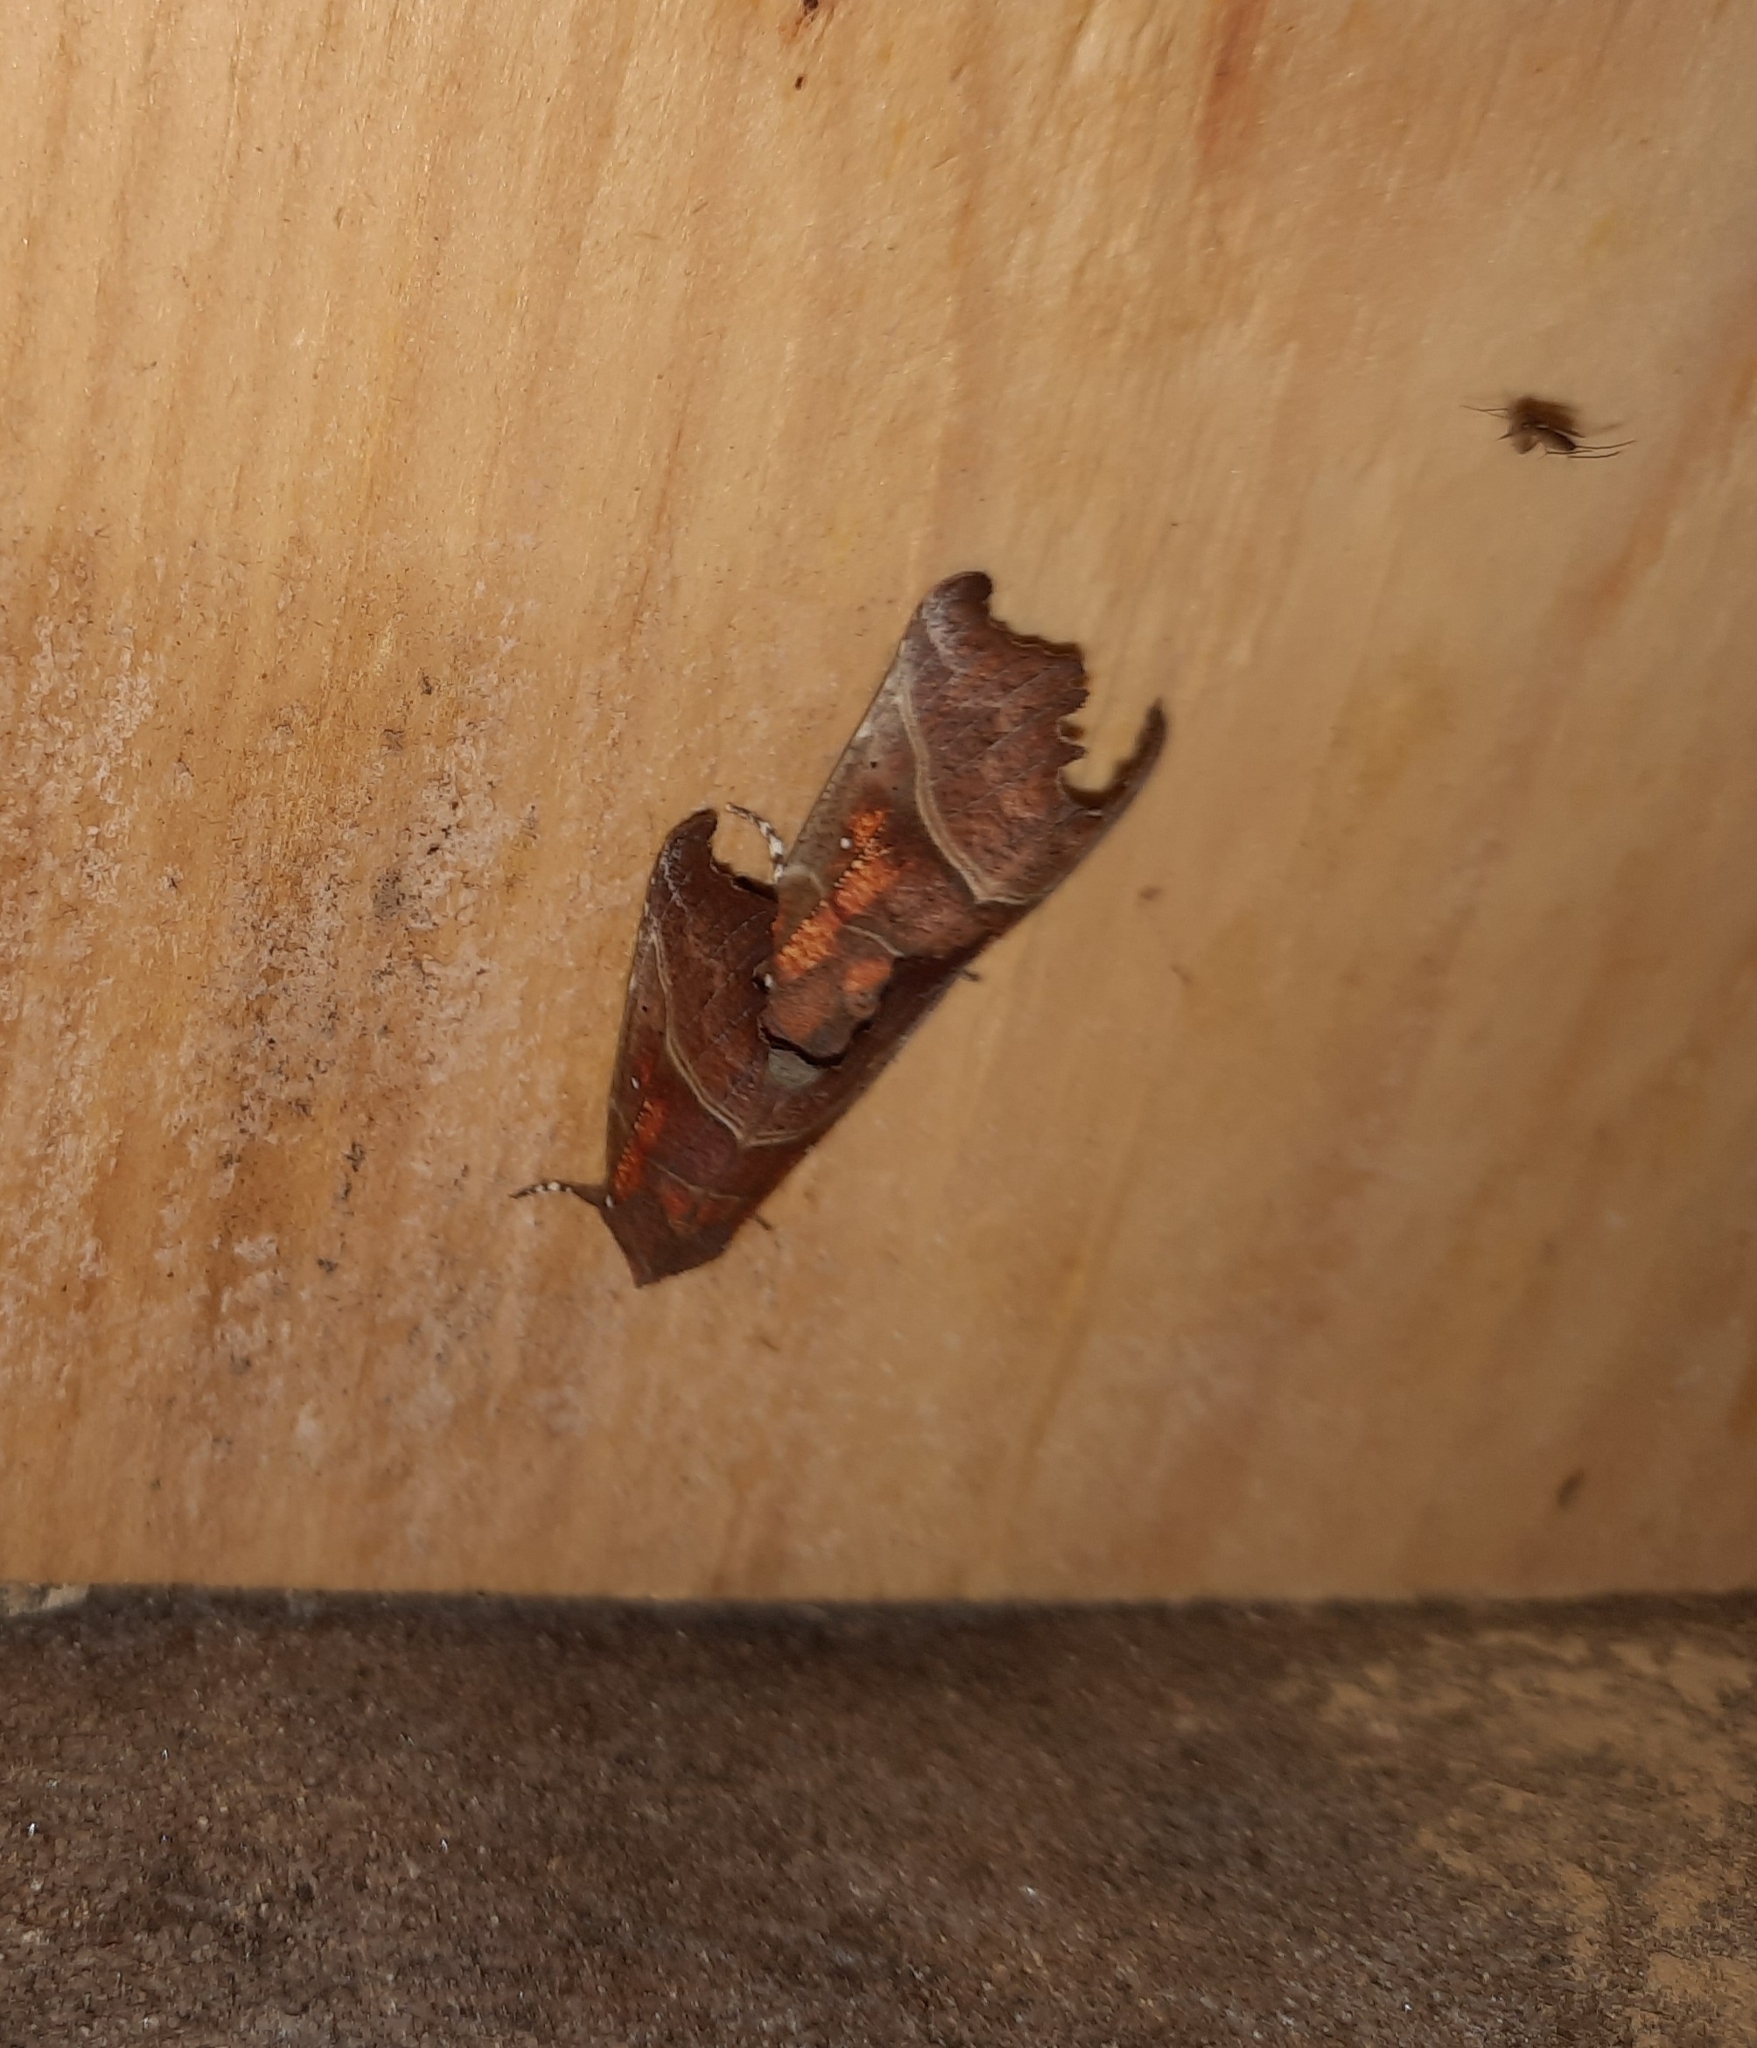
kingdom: Animalia
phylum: Arthropoda
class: Insecta
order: Lepidoptera
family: Erebidae
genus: Scoliopteryx
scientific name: Scoliopteryx libatrix
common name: Herald
